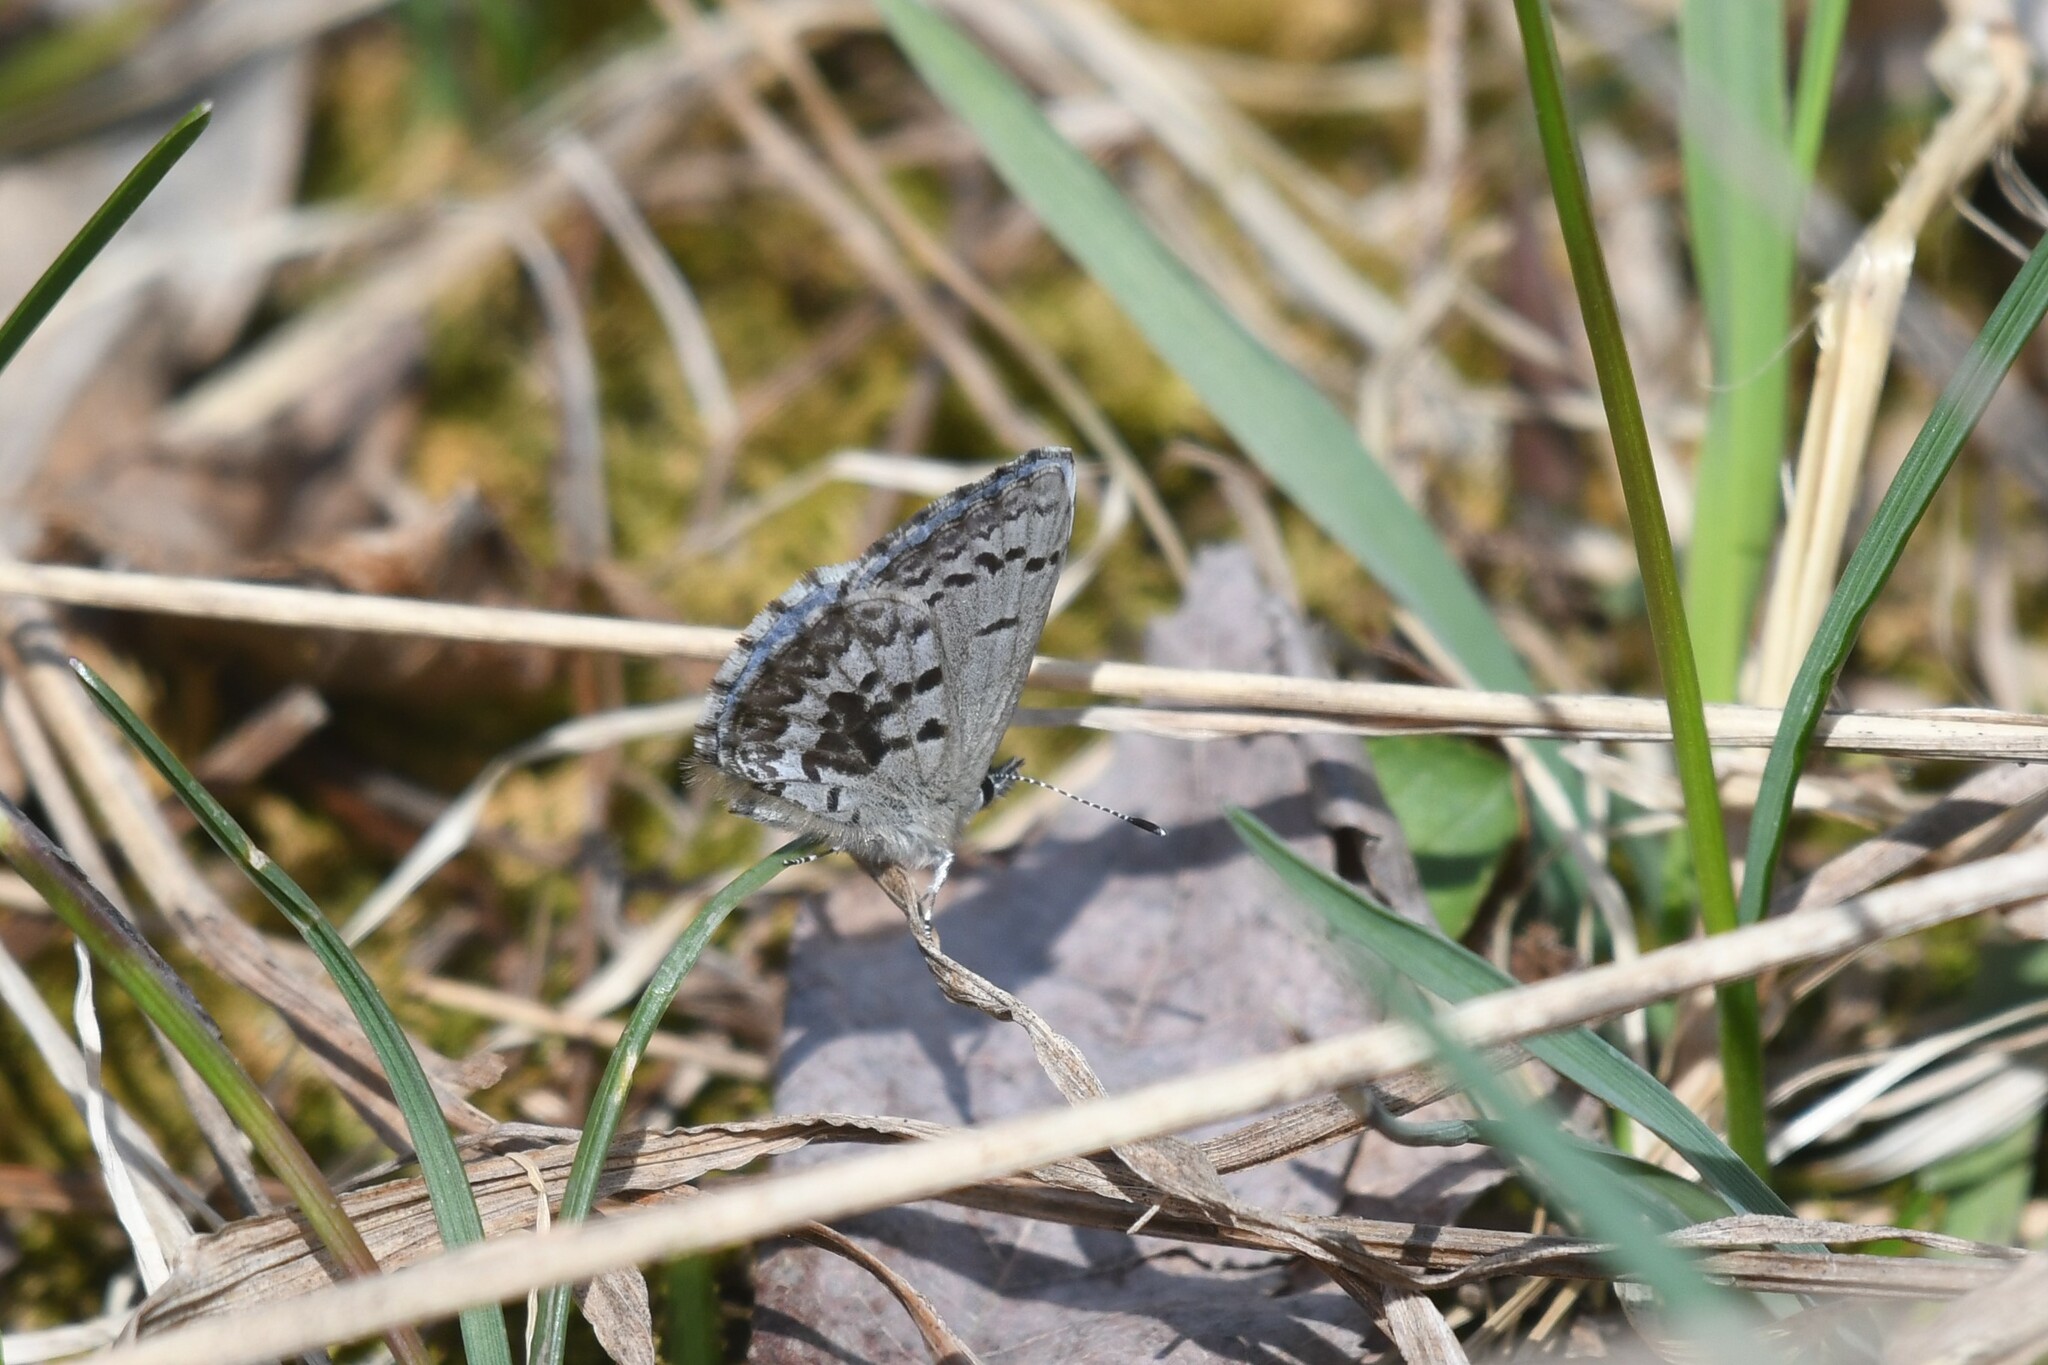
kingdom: Animalia
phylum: Arthropoda
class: Insecta
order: Lepidoptera
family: Lycaenidae
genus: Celastrina
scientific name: Celastrina lucia
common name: Lucia azure
